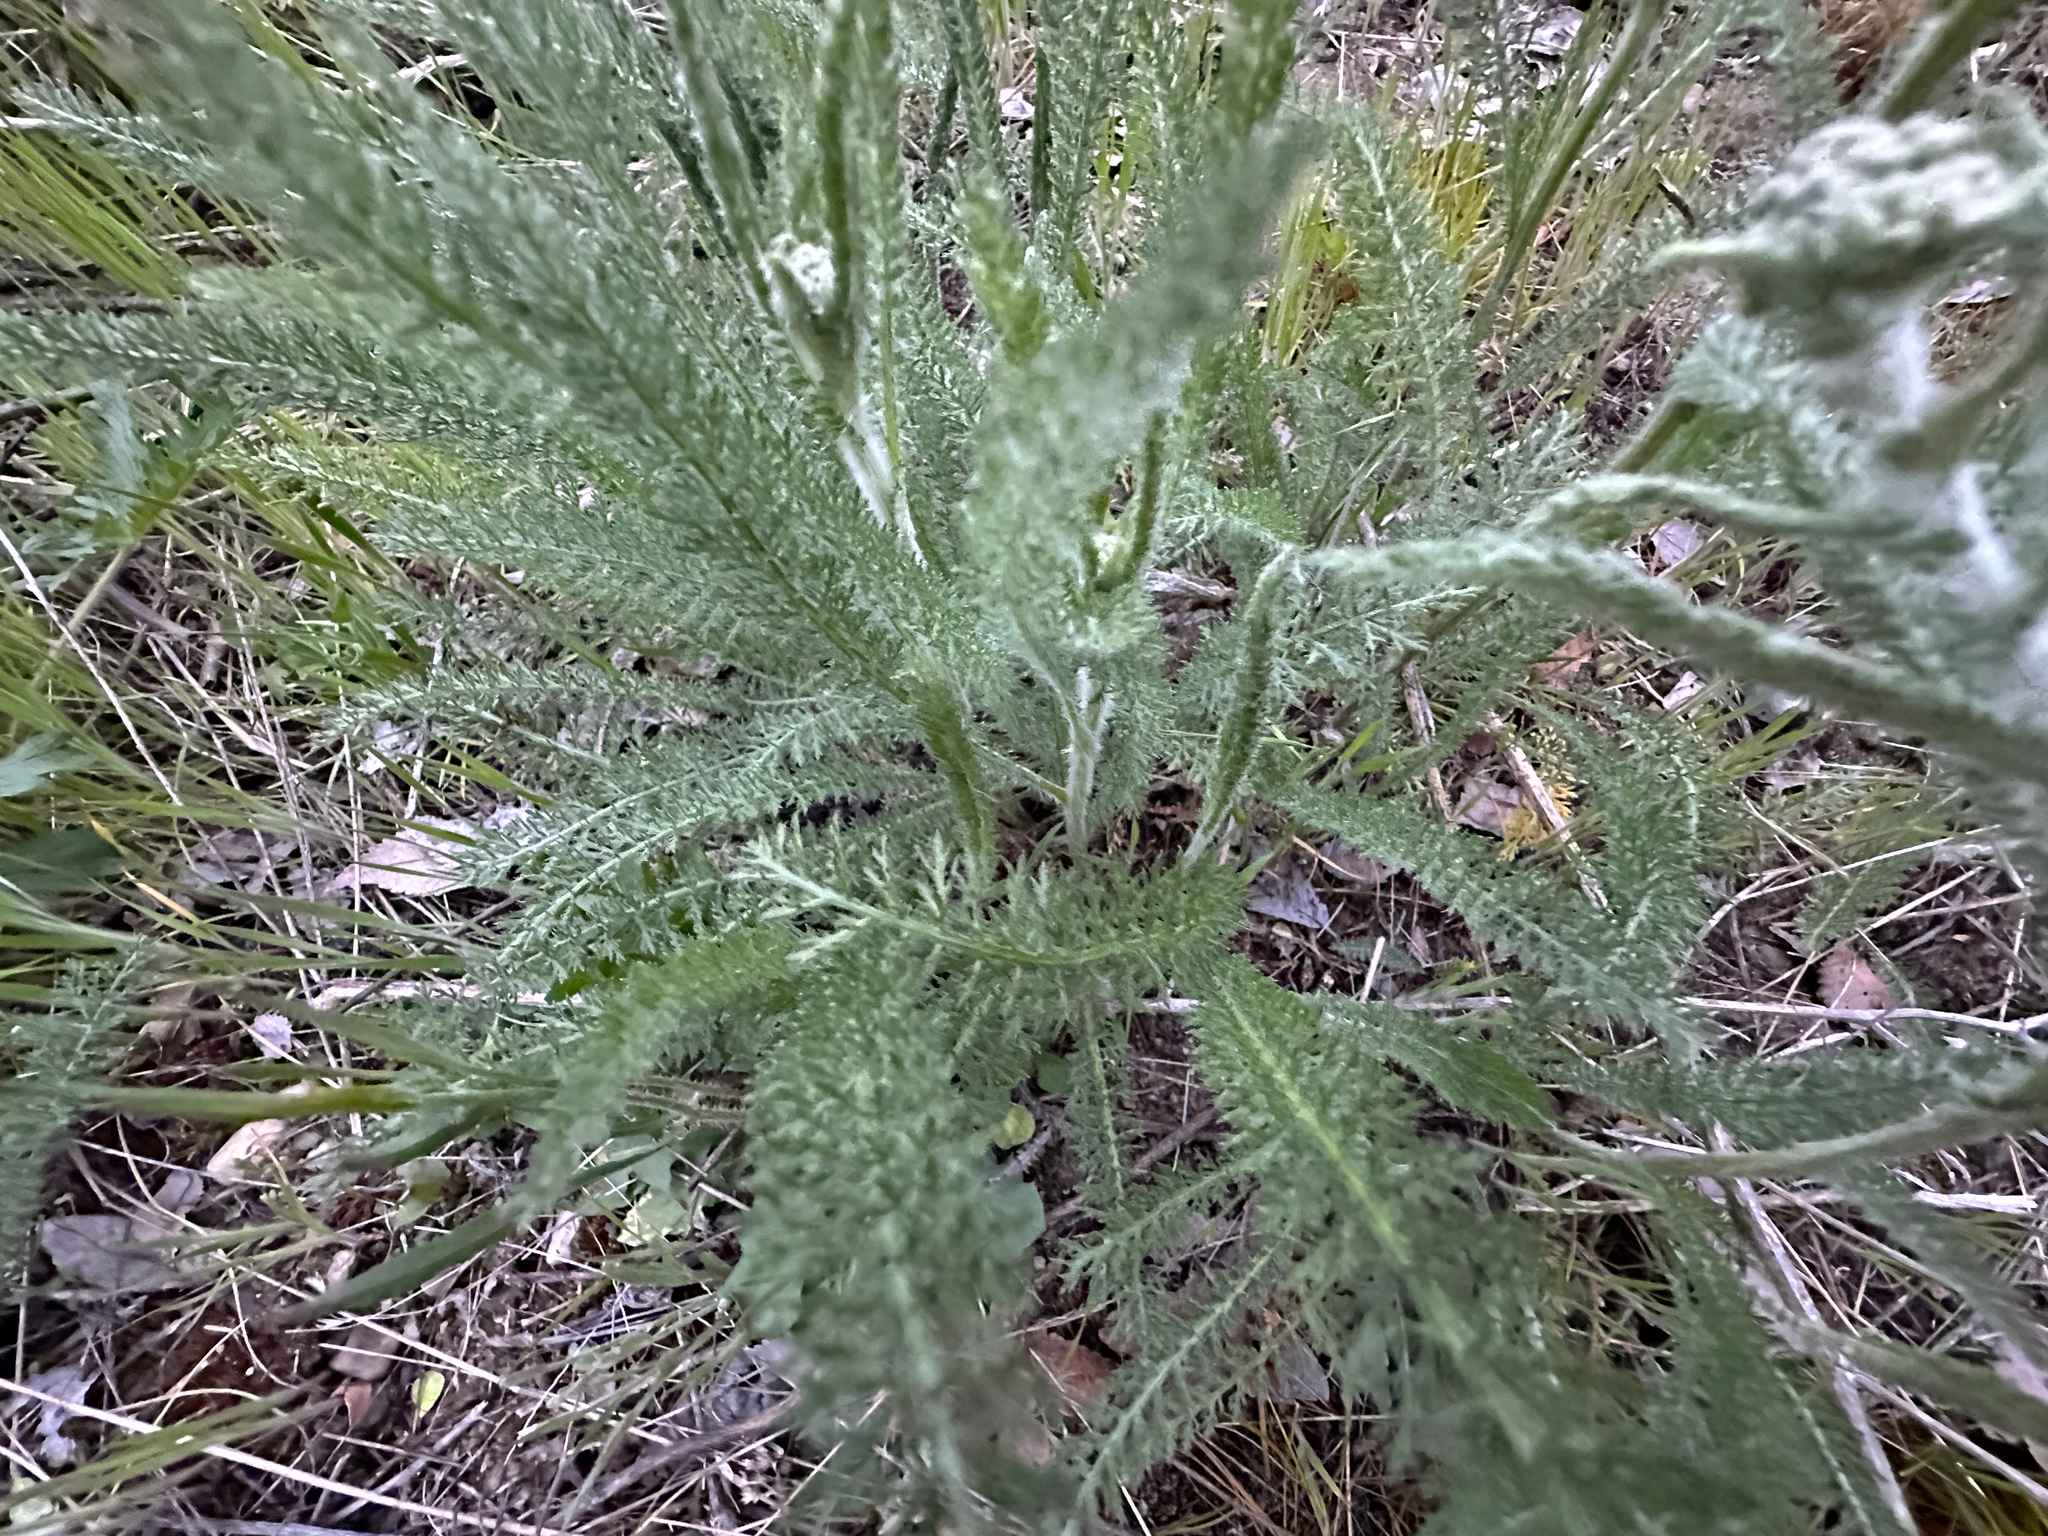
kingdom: Plantae
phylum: Tracheophyta
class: Magnoliopsida
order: Asterales
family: Asteraceae
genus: Achillea
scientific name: Achillea millefolium
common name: Yarrow
